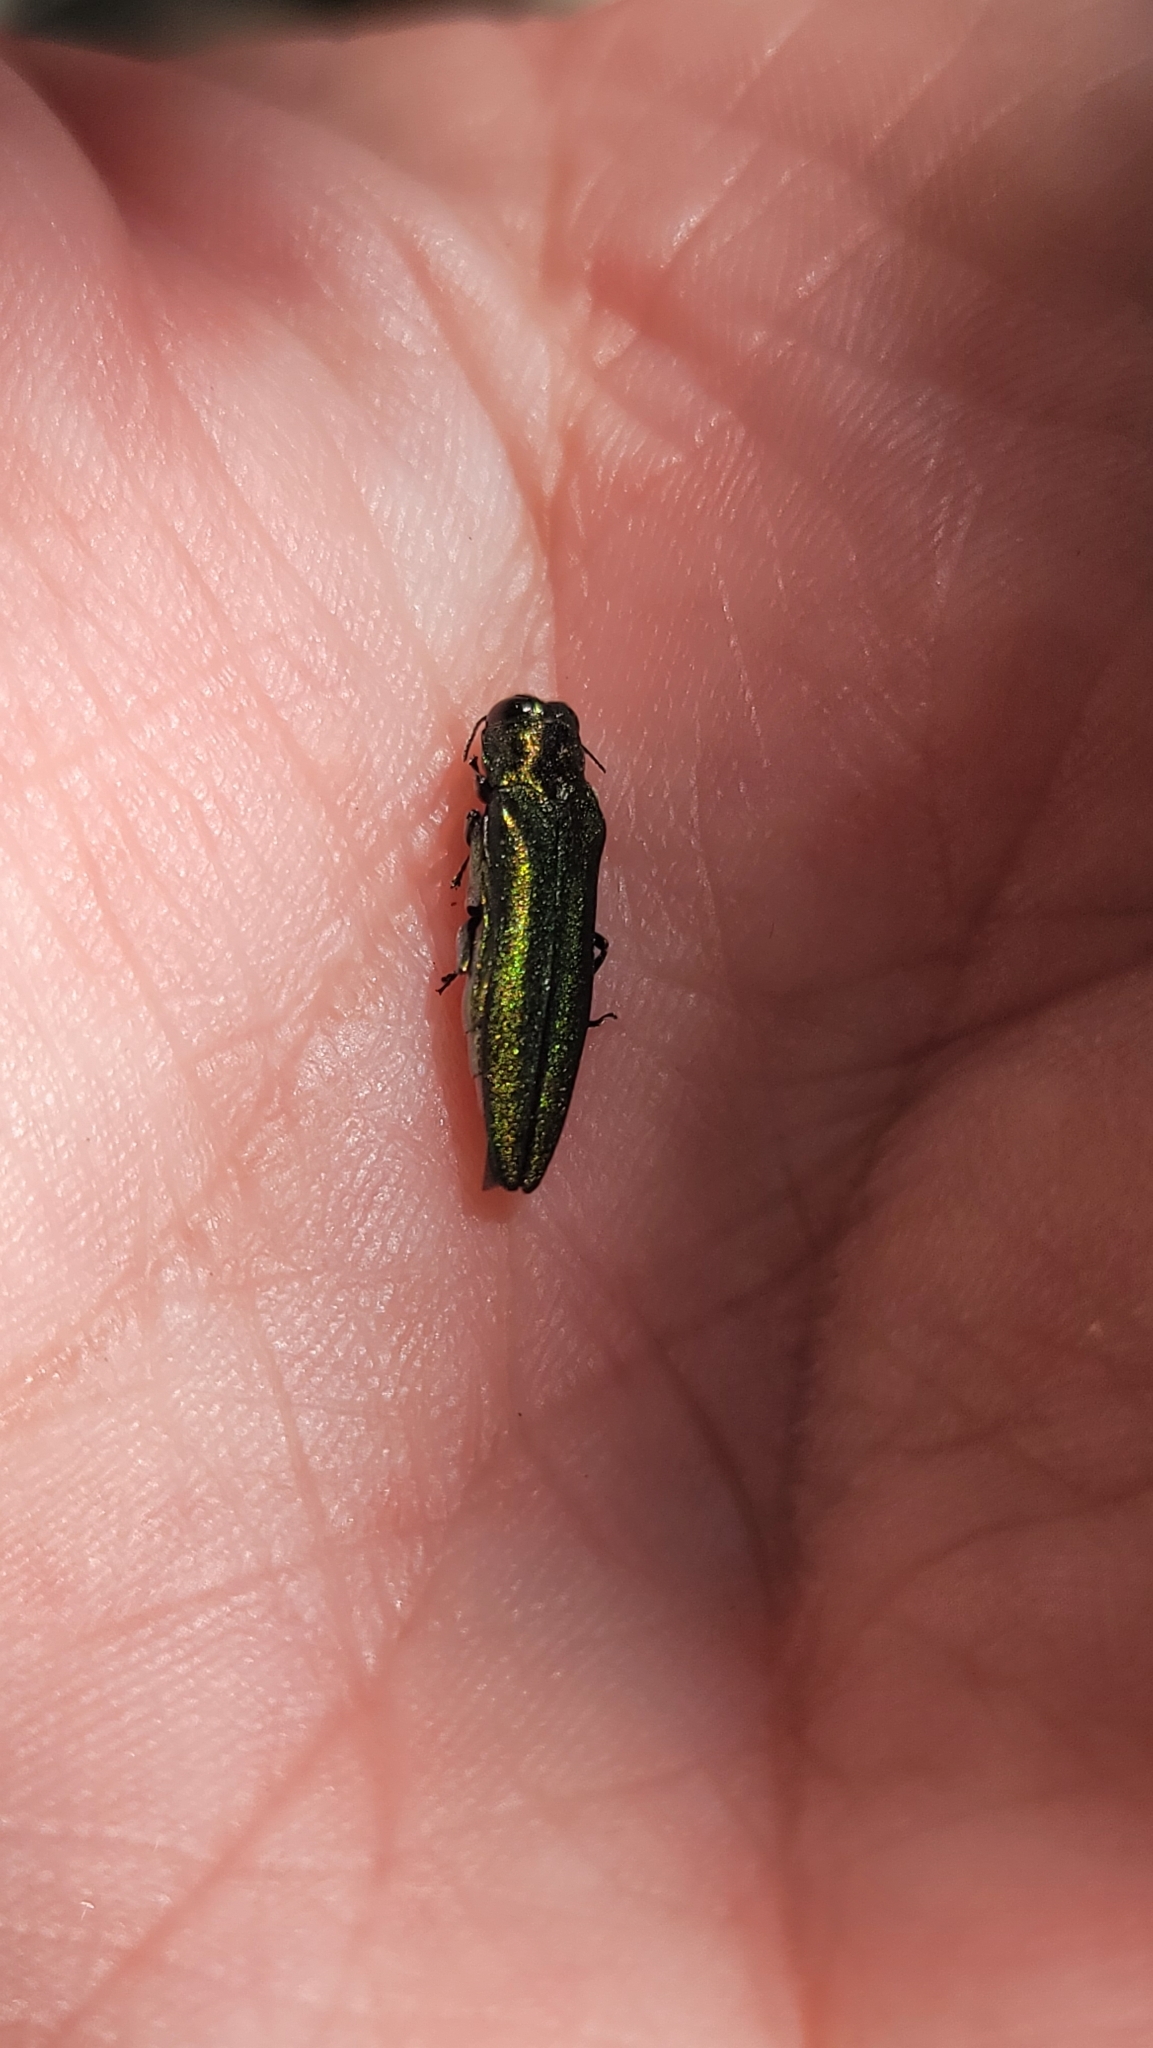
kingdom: Animalia
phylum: Arthropoda
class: Insecta
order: Coleoptera
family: Buprestidae
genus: Agrilus
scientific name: Agrilus planipennis
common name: Emerald ash borer
